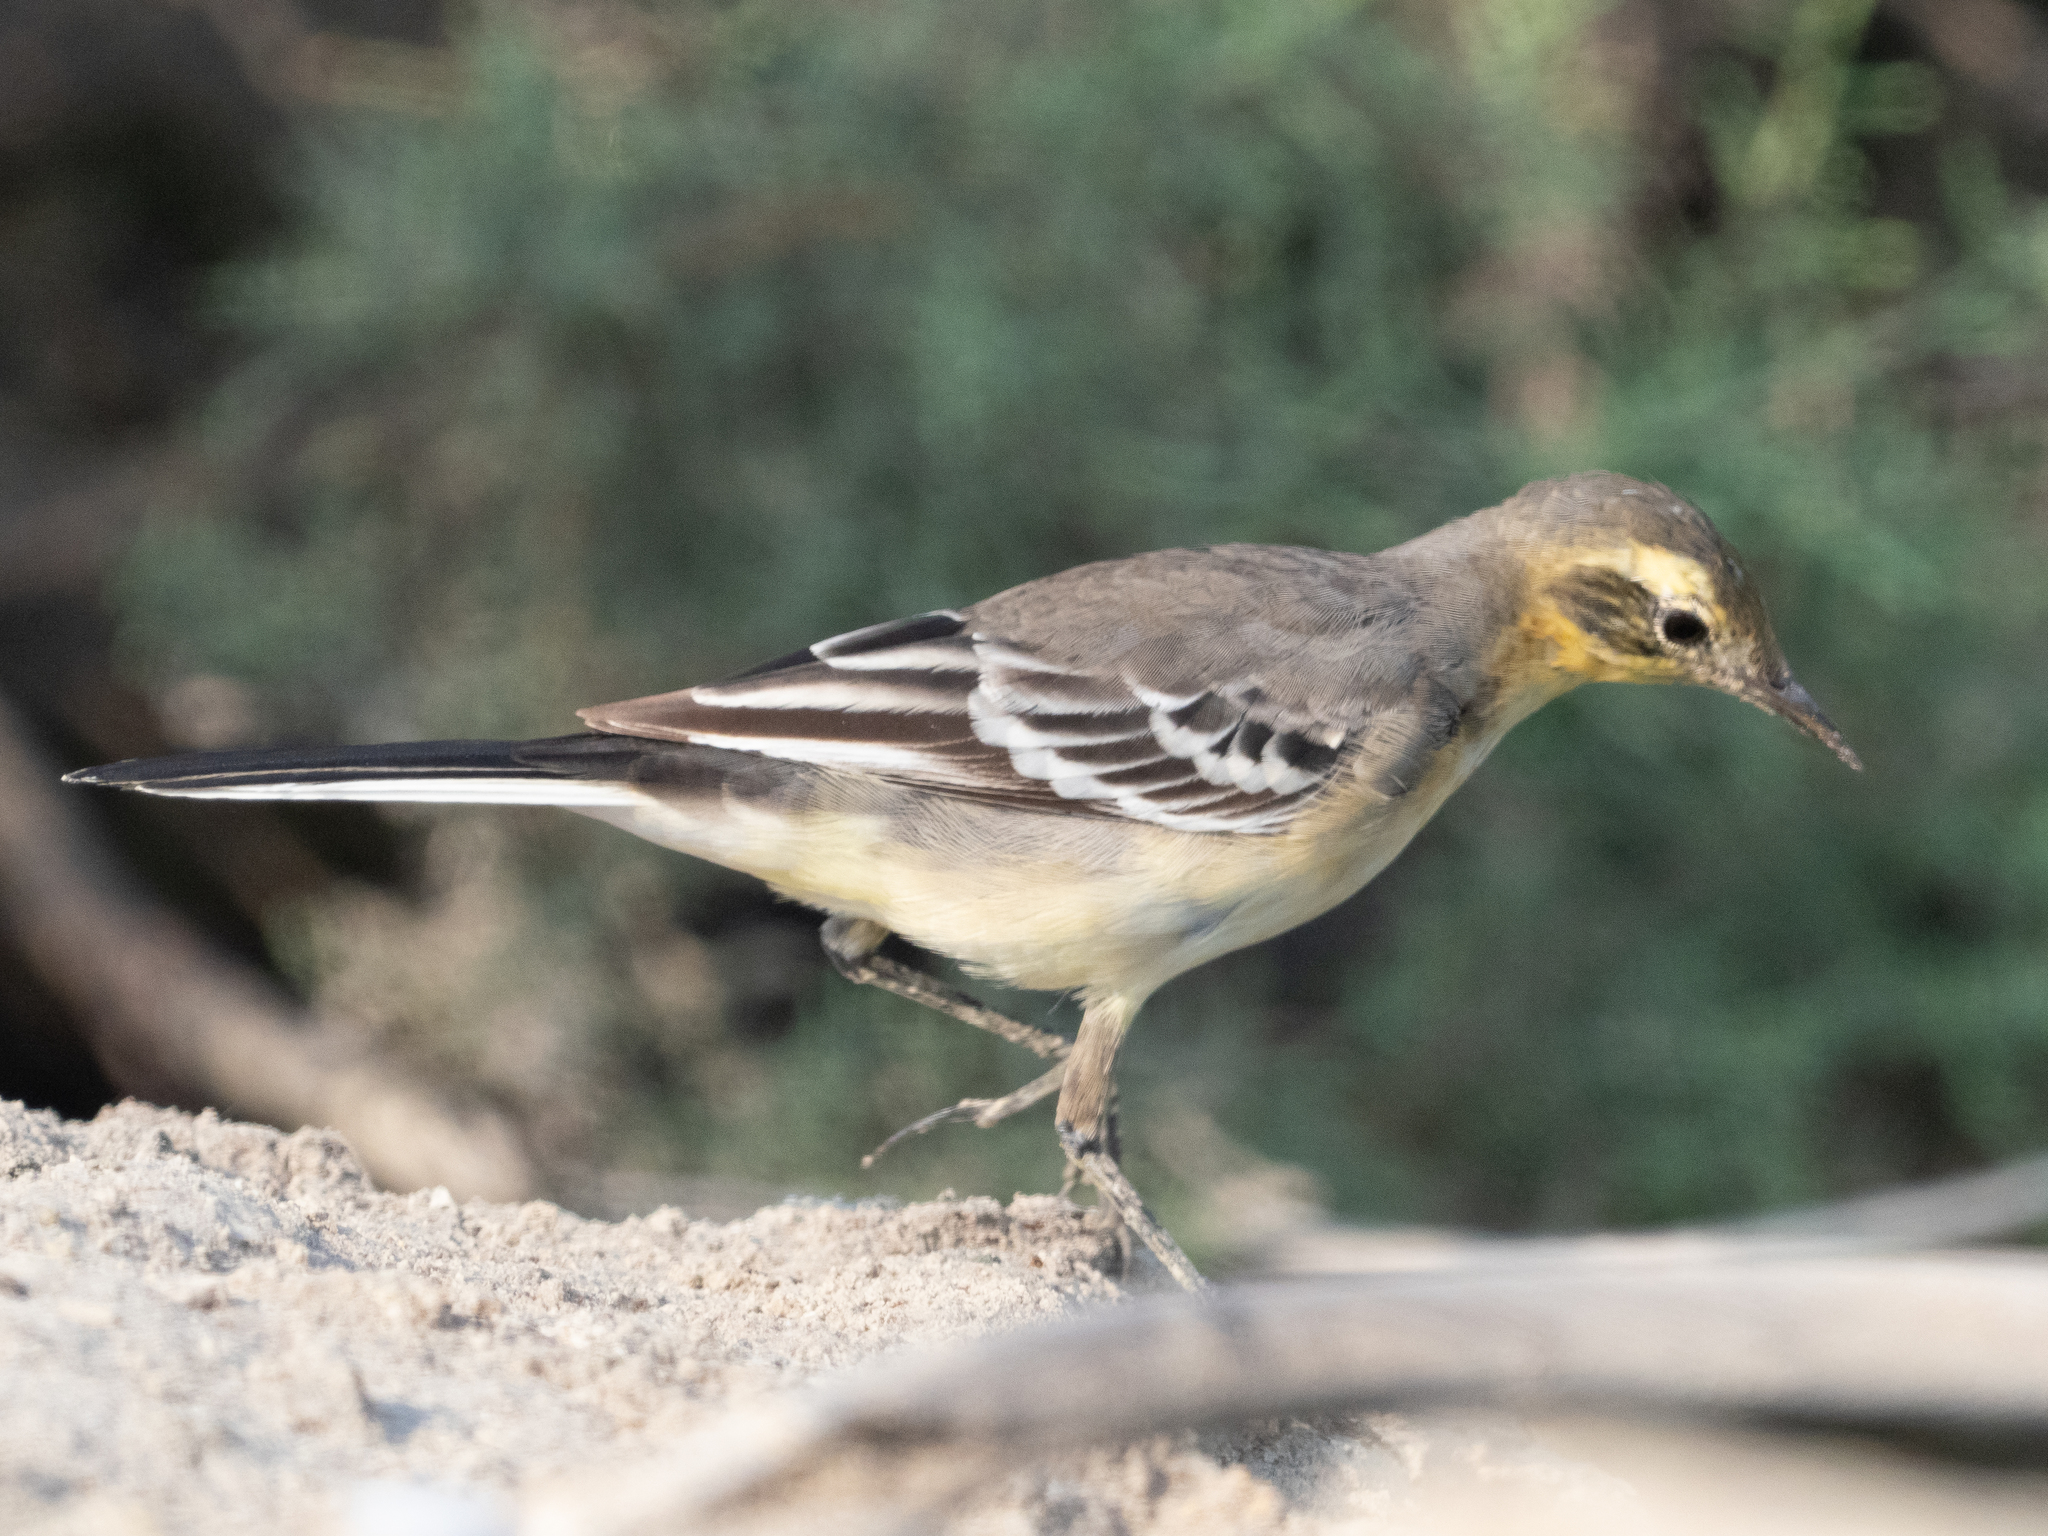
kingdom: Animalia
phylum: Chordata
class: Aves
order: Passeriformes
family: Motacillidae
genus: Motacilla
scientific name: Motacilla citreola
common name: Citrine wagtail
